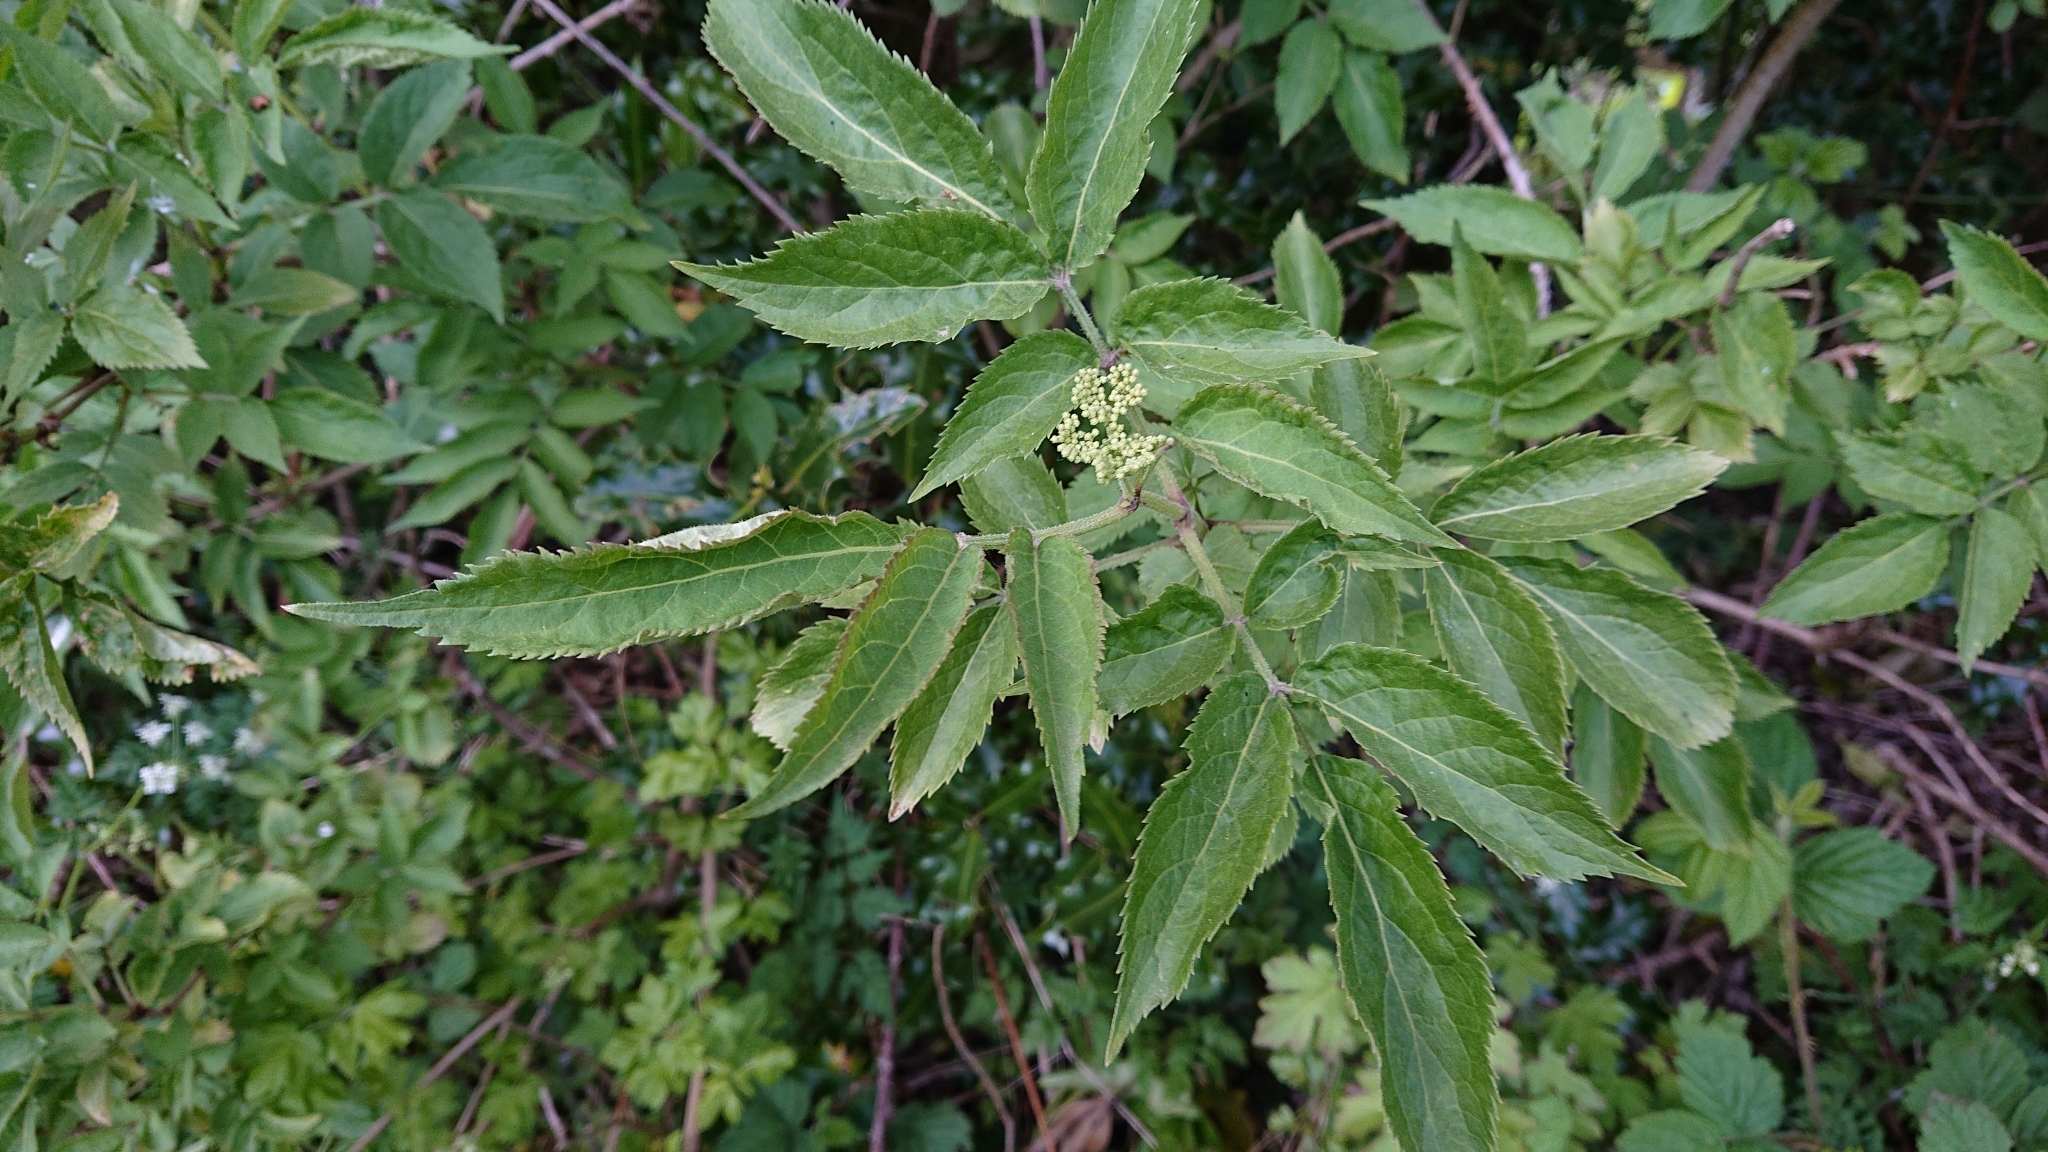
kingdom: Plantae
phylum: Tracheophyta
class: Magnoliopsida
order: Dipsacales
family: Viburnaceae
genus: Sambucus
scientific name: Sambucus nigra
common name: Elder
